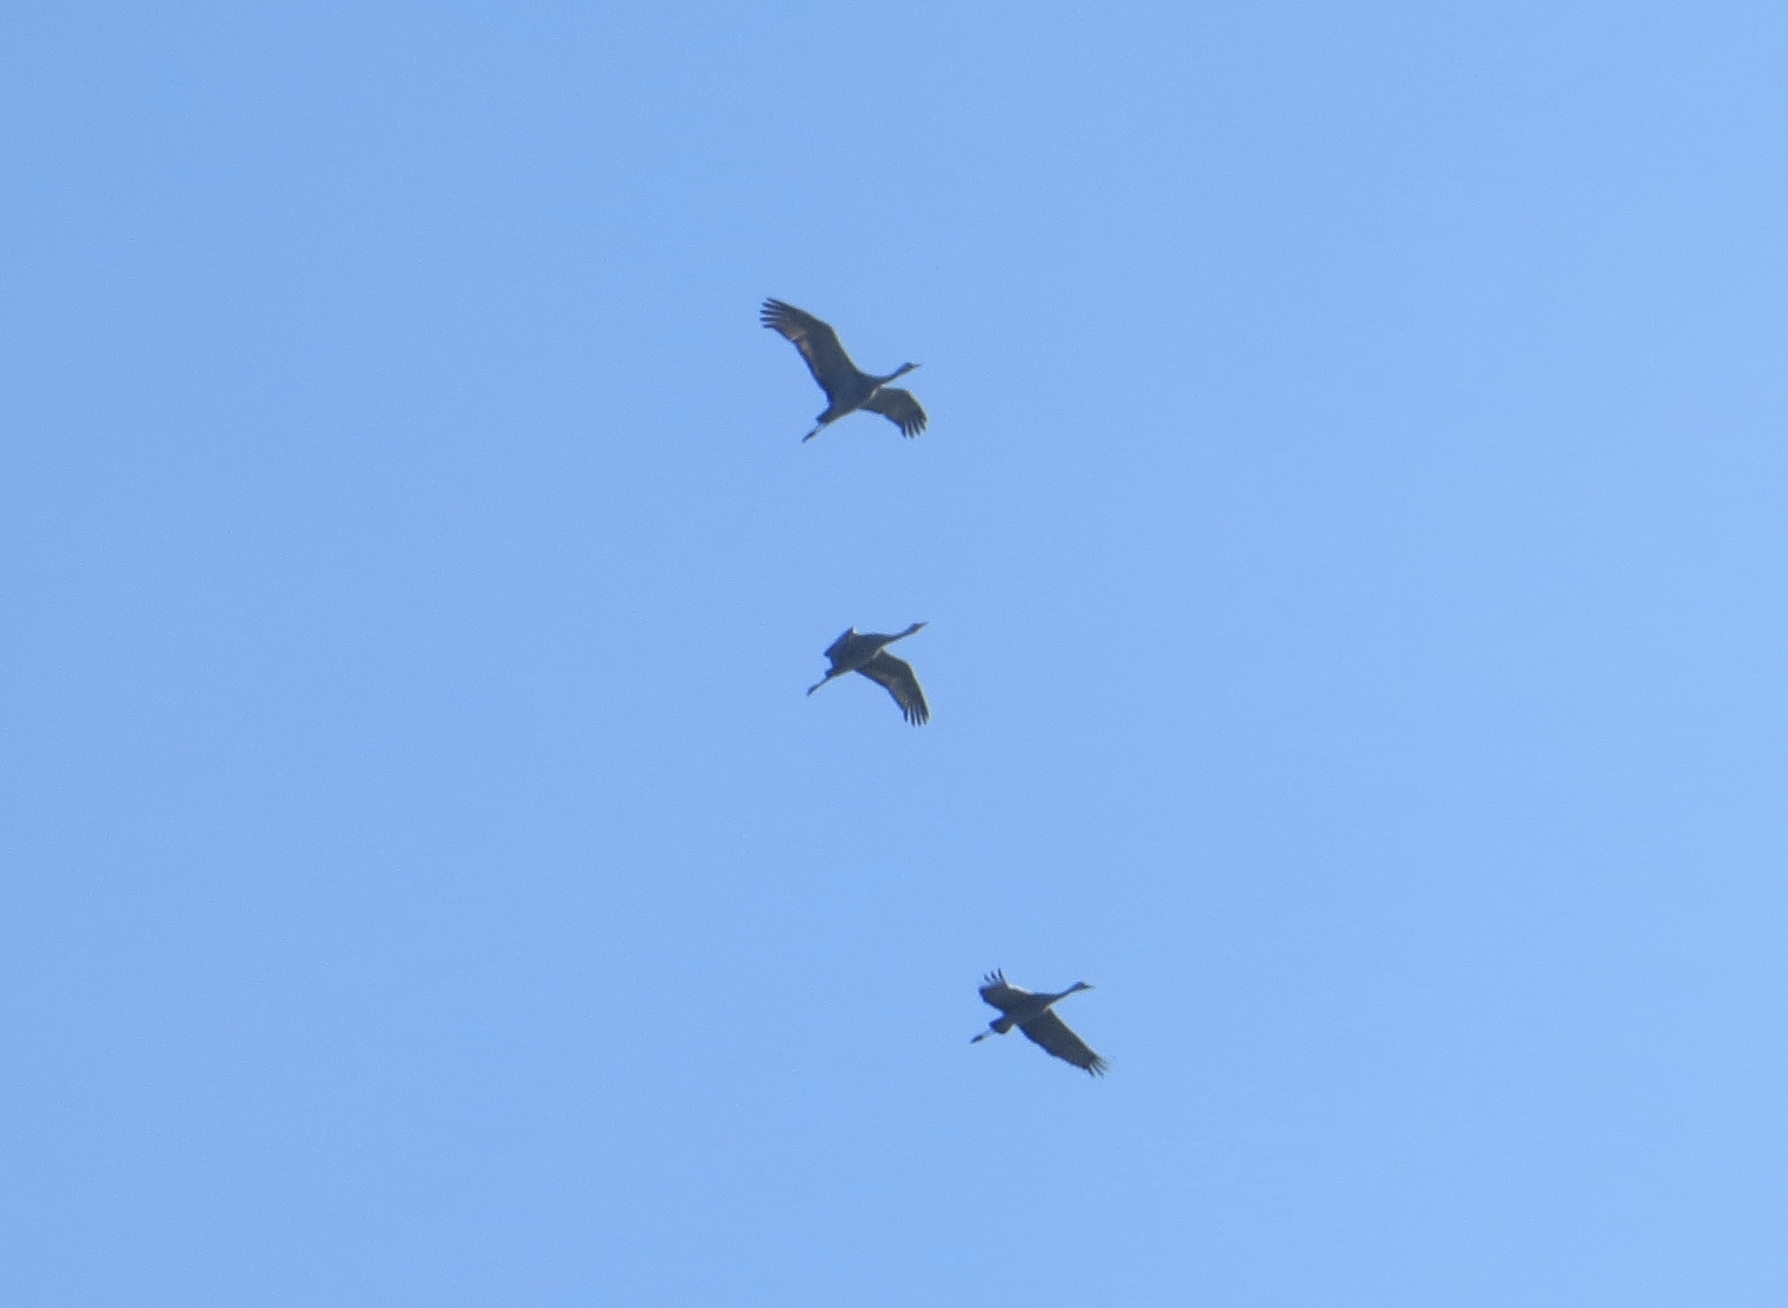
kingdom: Animalia
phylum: Chordata
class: Aves
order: Gruiformes
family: Gruidae
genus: Grus
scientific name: Grus canadensis
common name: Sandhill crane
